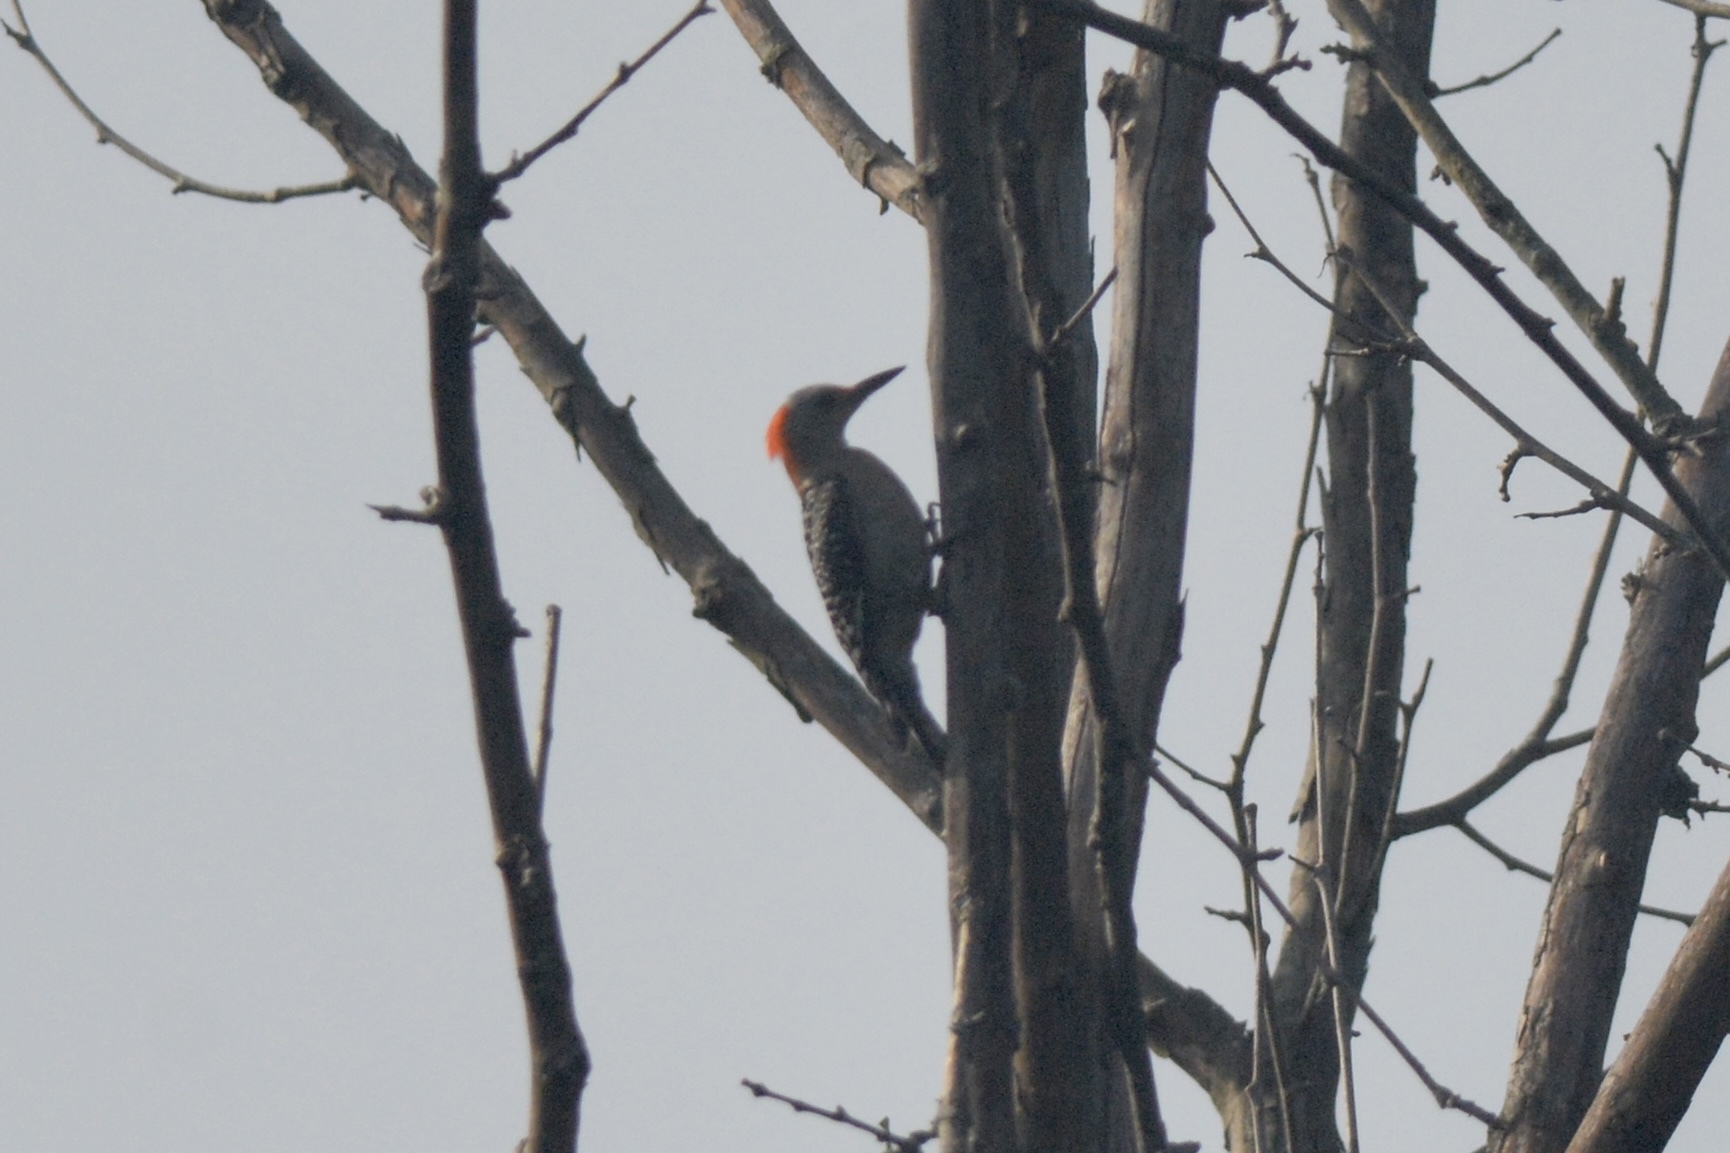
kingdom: Animalia
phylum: Chordata
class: Aves
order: Piciformes
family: Picidae
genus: Melanerpes
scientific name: Melanerpes carolinus
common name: Red-bellied woodpecker
